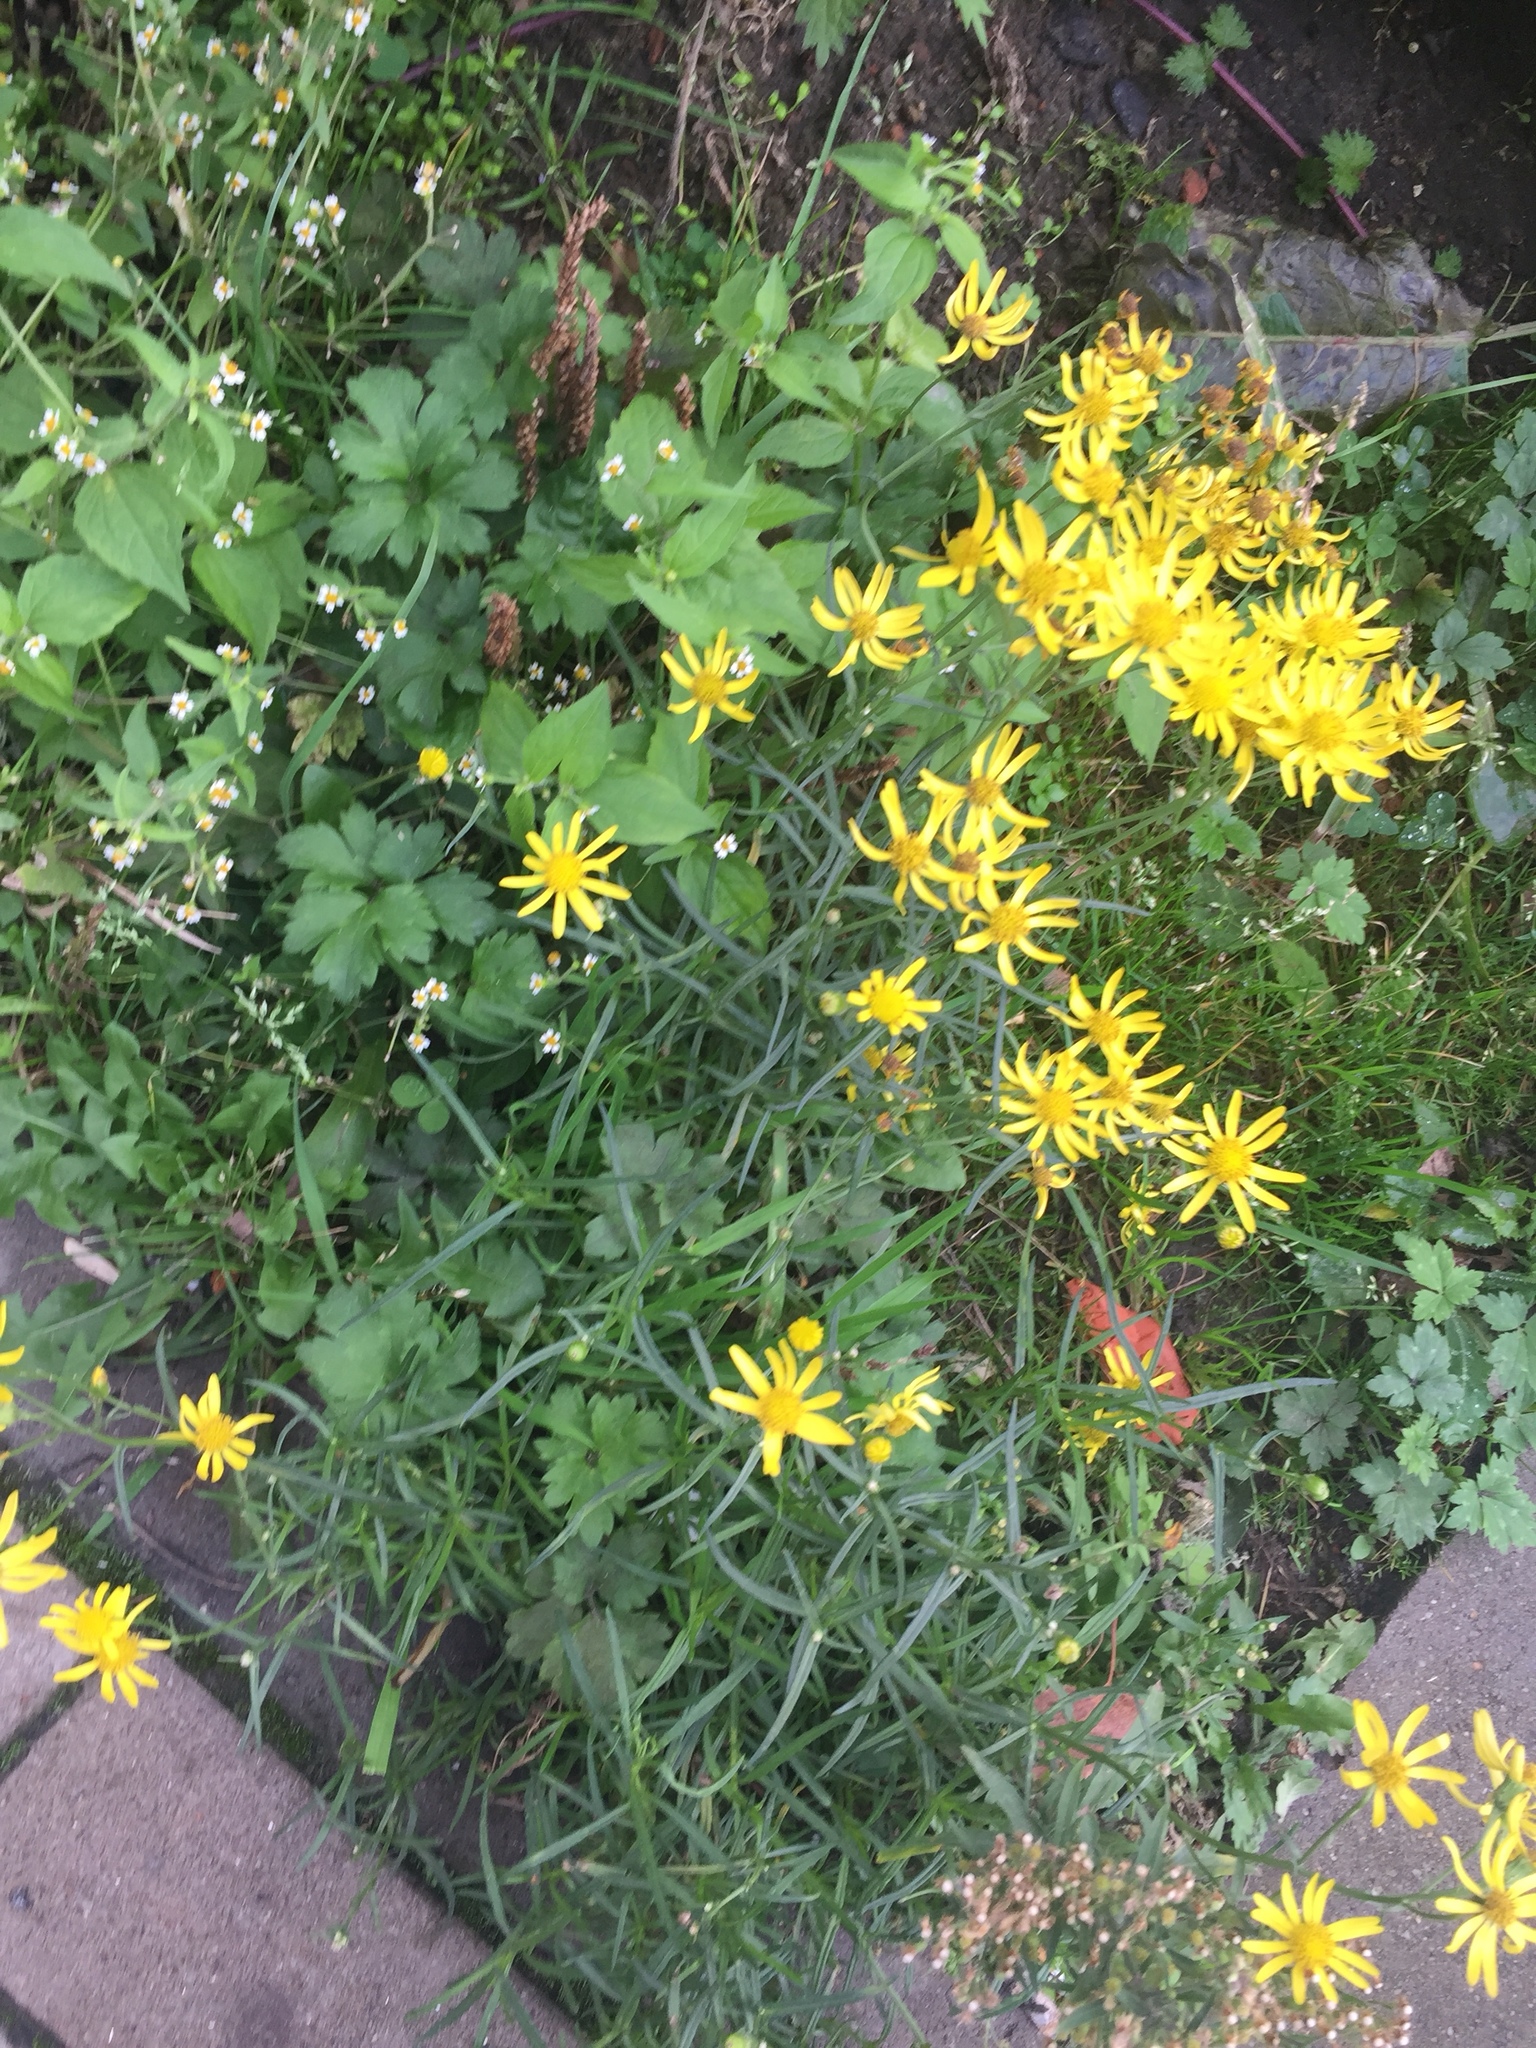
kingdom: Plantae
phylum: Tracheophyta
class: Magnoliopsida
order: Asterales
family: Asteraceae
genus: Senecio
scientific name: Senecio inaequidens
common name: Narrow-leaved ragwort
